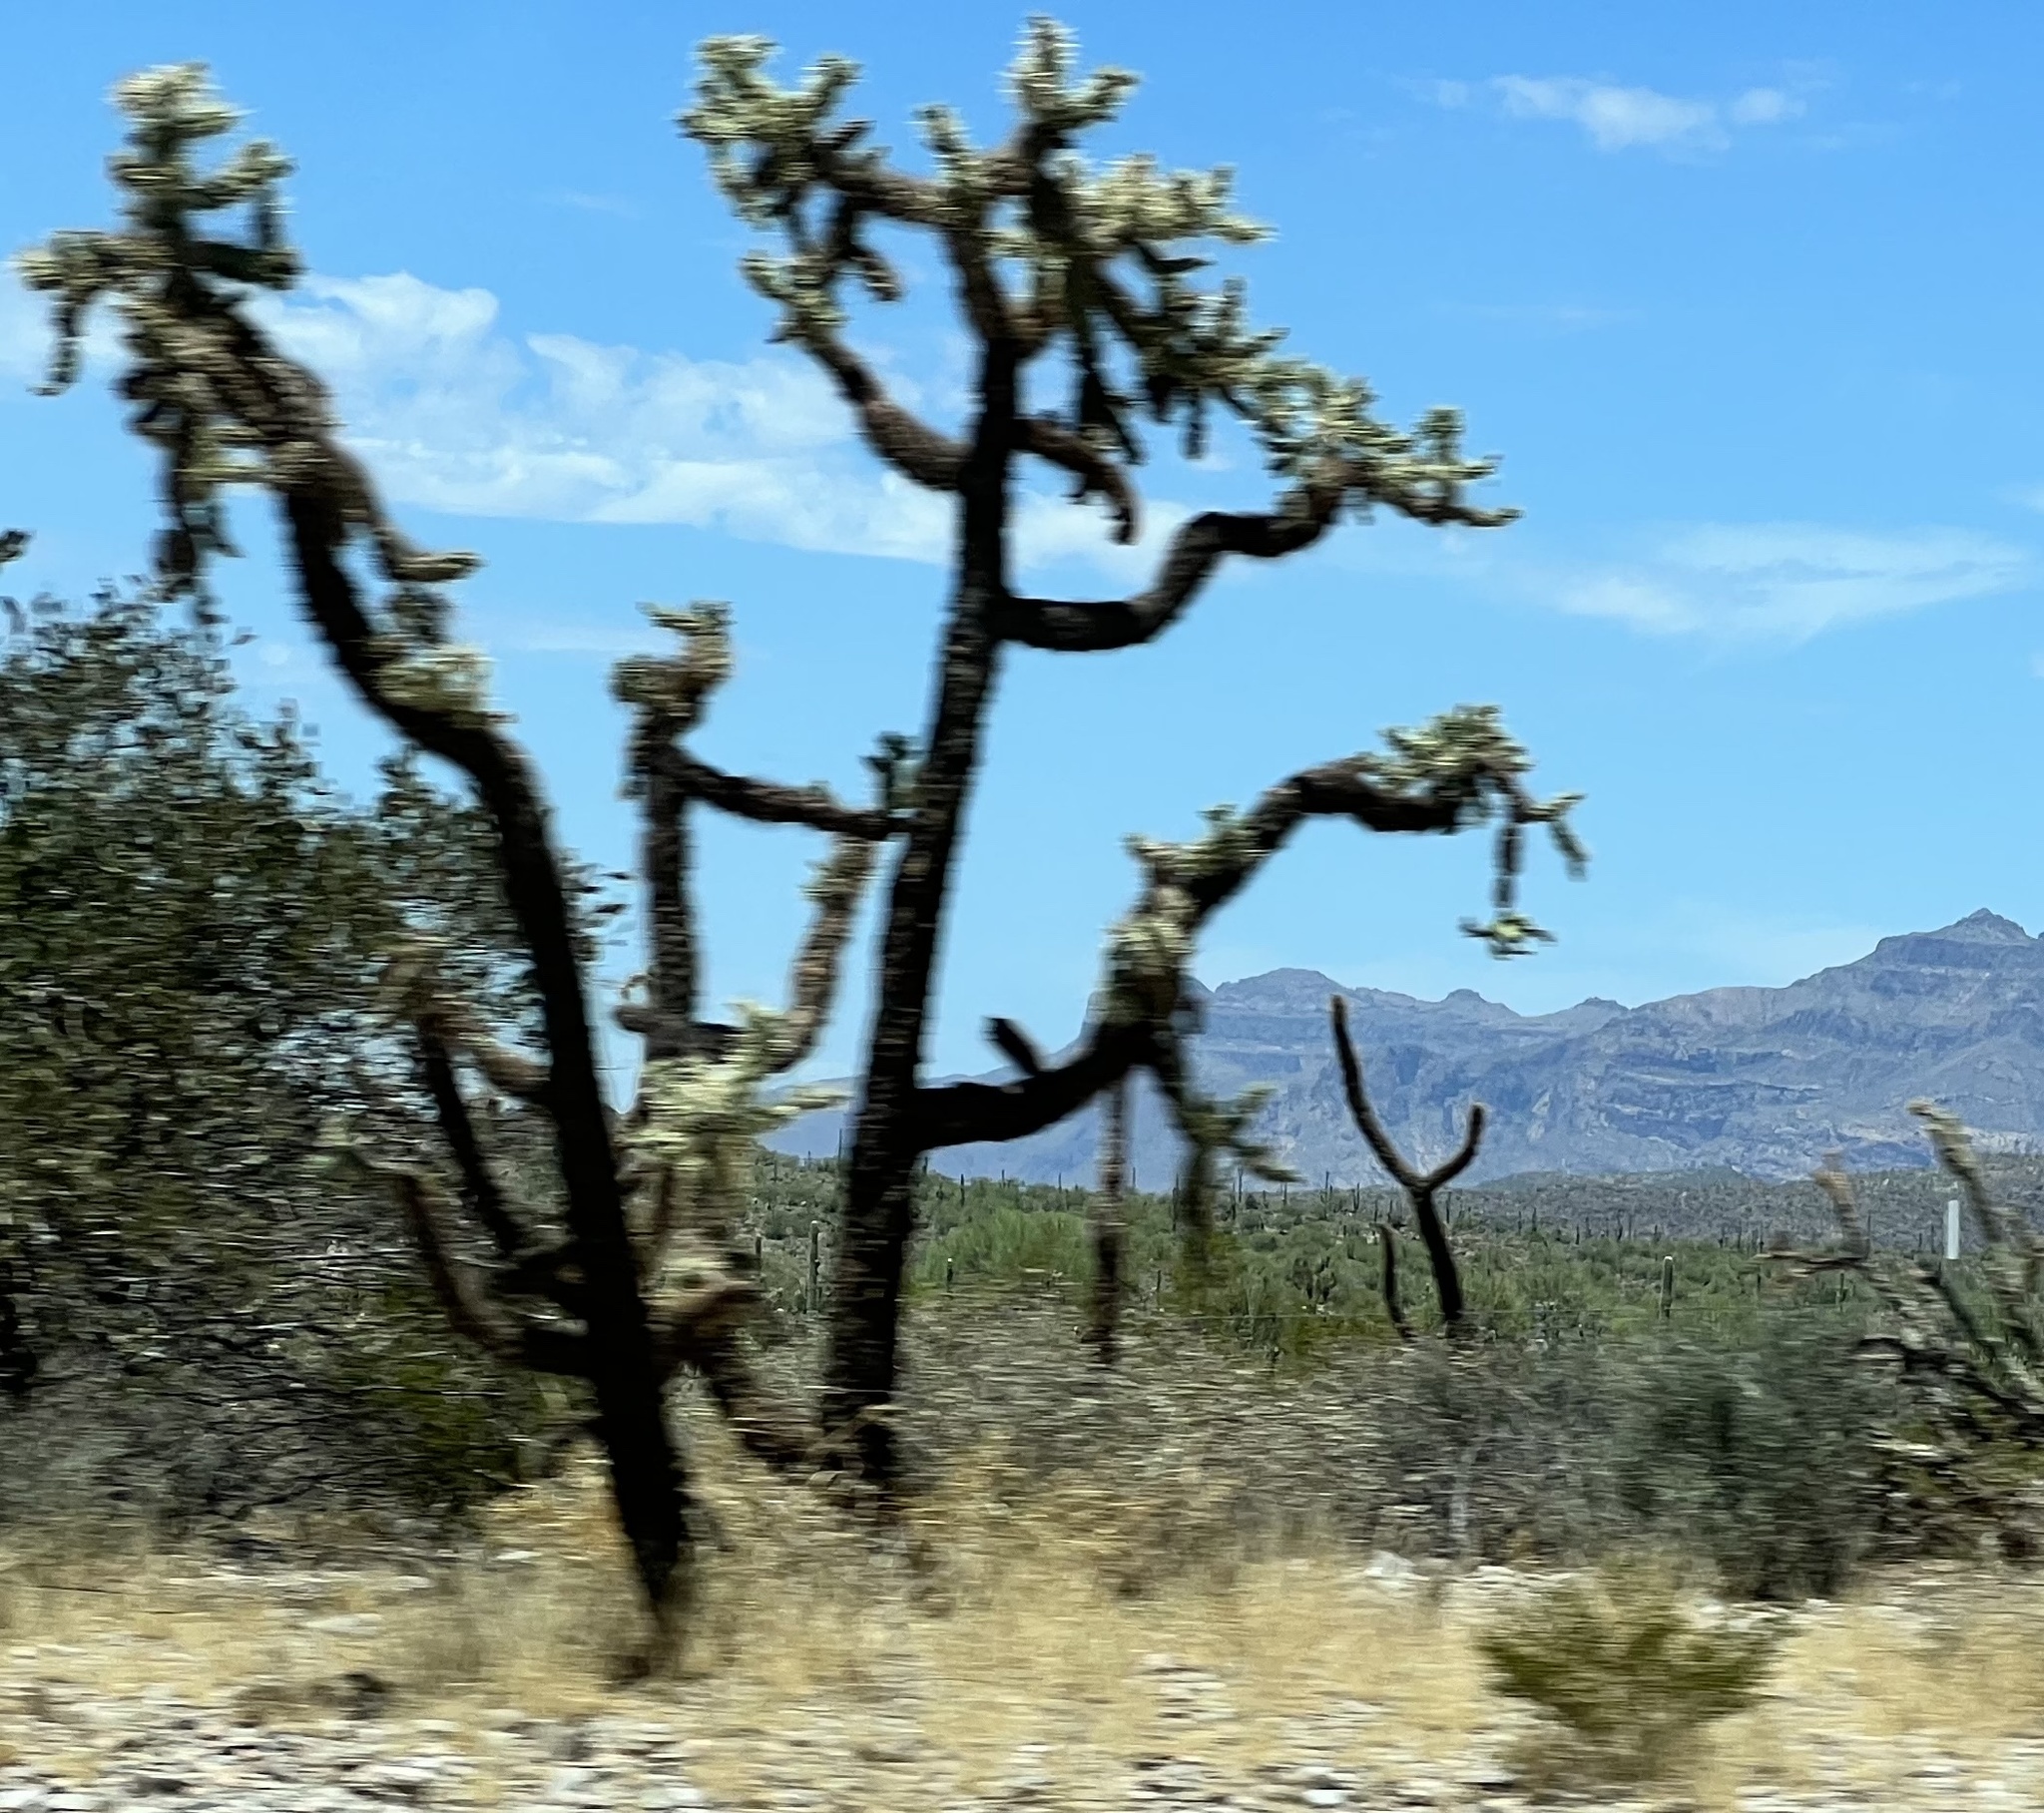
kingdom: Plantae
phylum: Tracheophyta
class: Magnoliopsida
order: Caryophyllales
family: Cactaceae
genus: Cylindropuntia
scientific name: Cylindropuntia fulgida
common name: Jumping cholla
